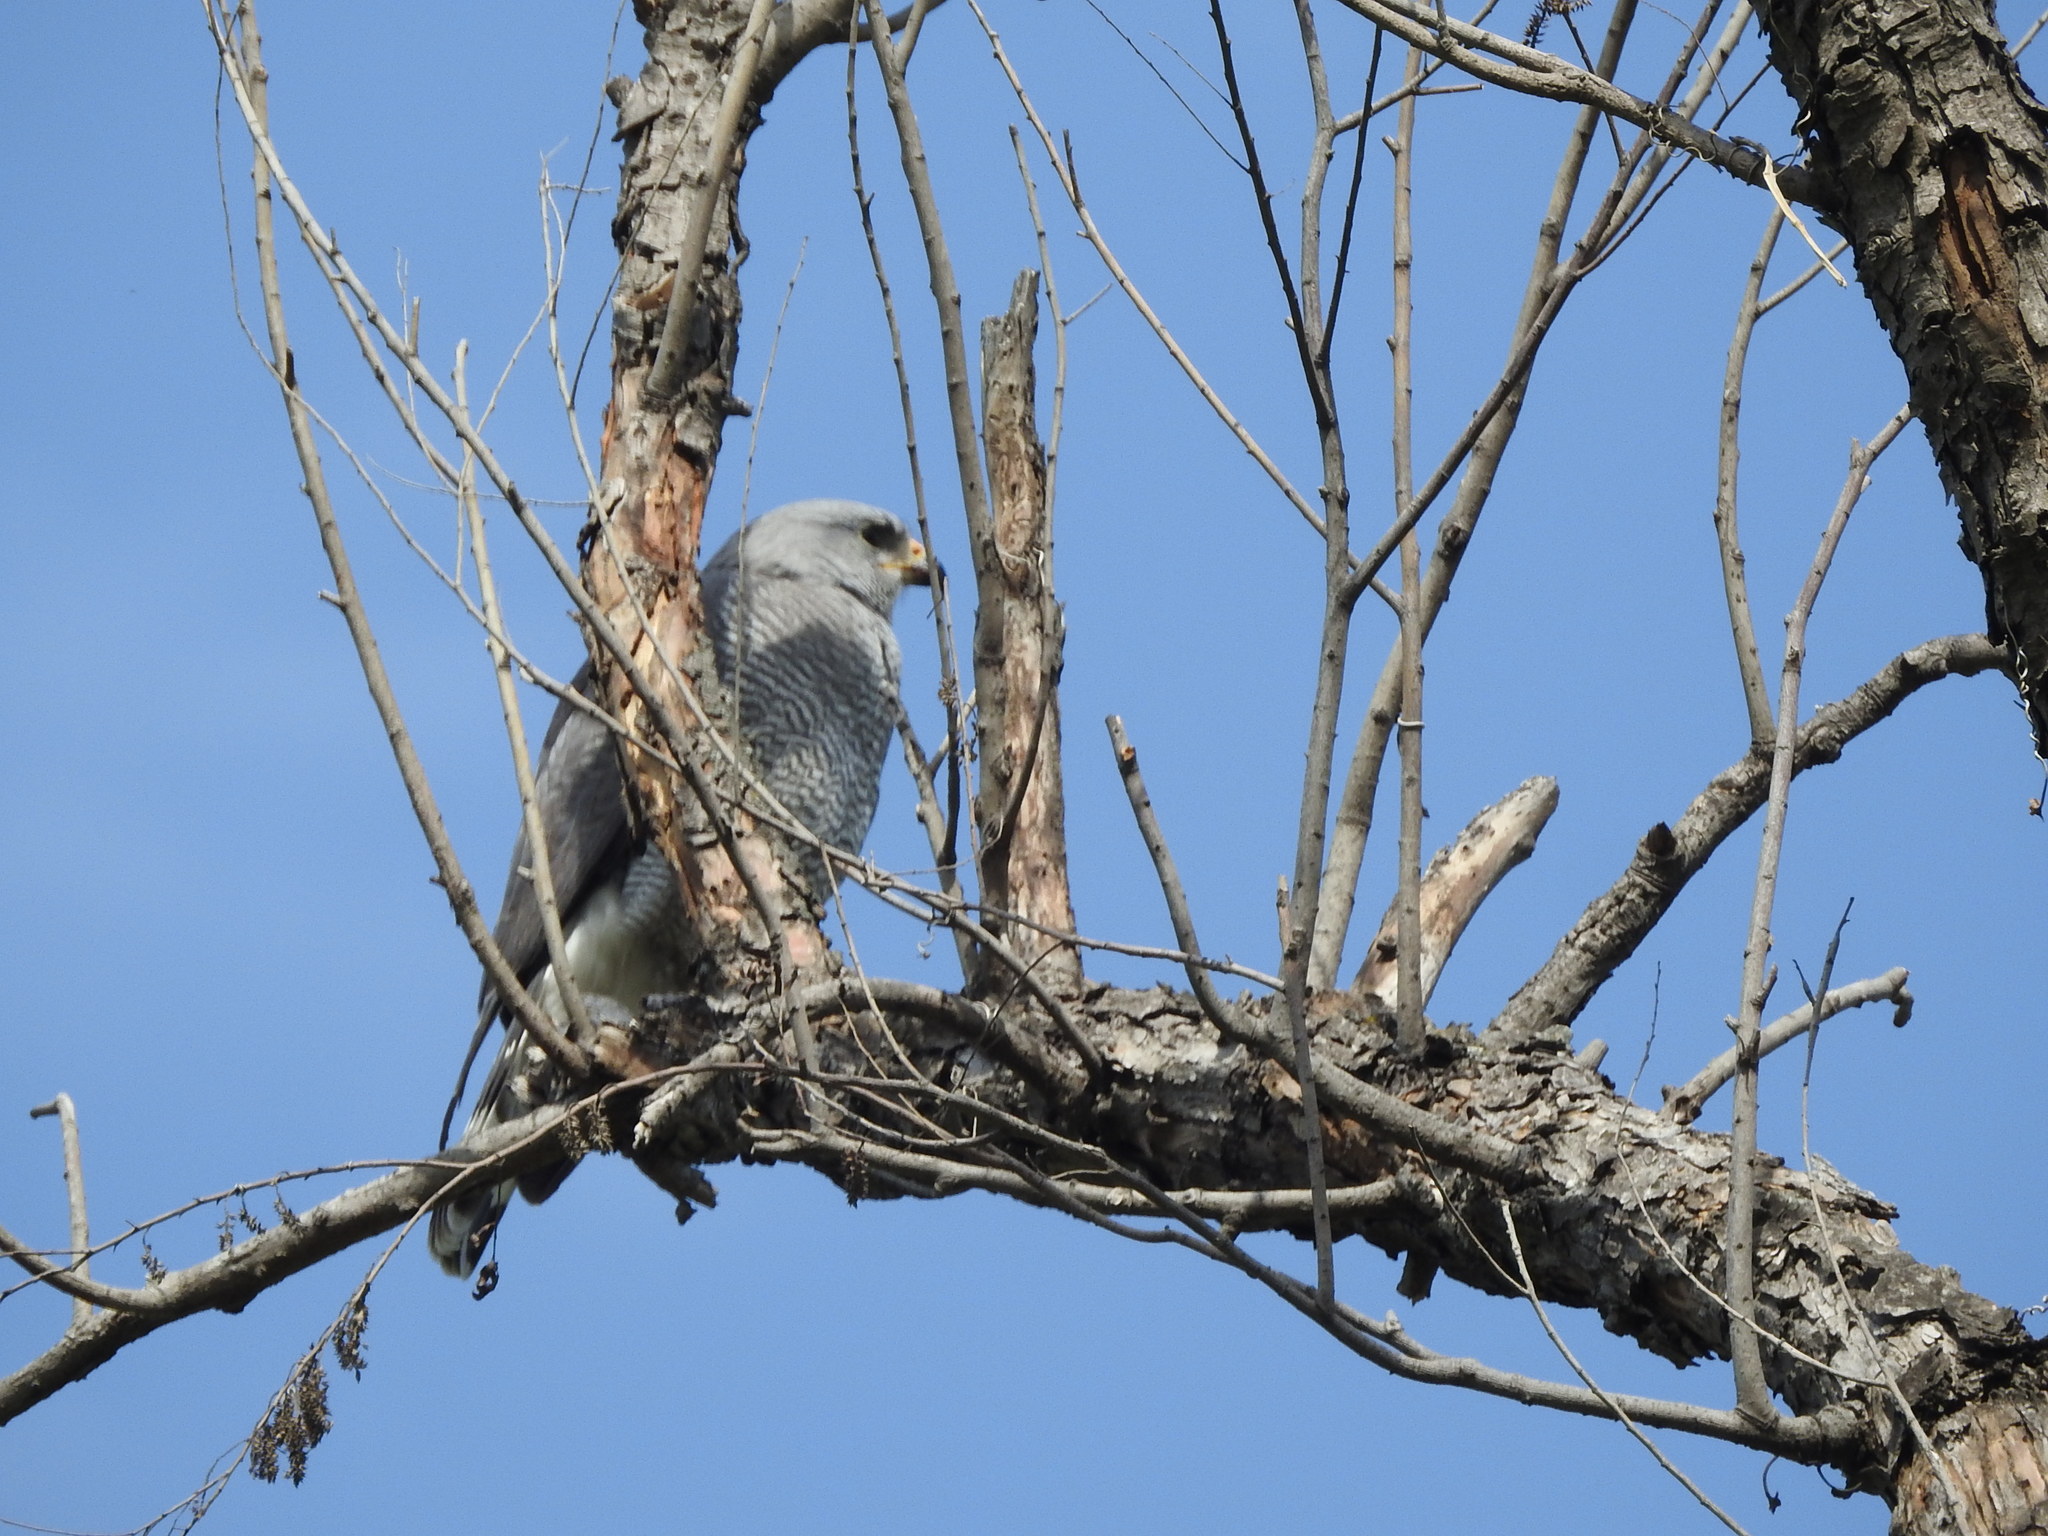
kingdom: Animalia
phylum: Chordata
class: Aves
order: Accipitriformes
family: Accipitridae
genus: Buteo
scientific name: Buteo nitidus
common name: Grey-lined hawk
